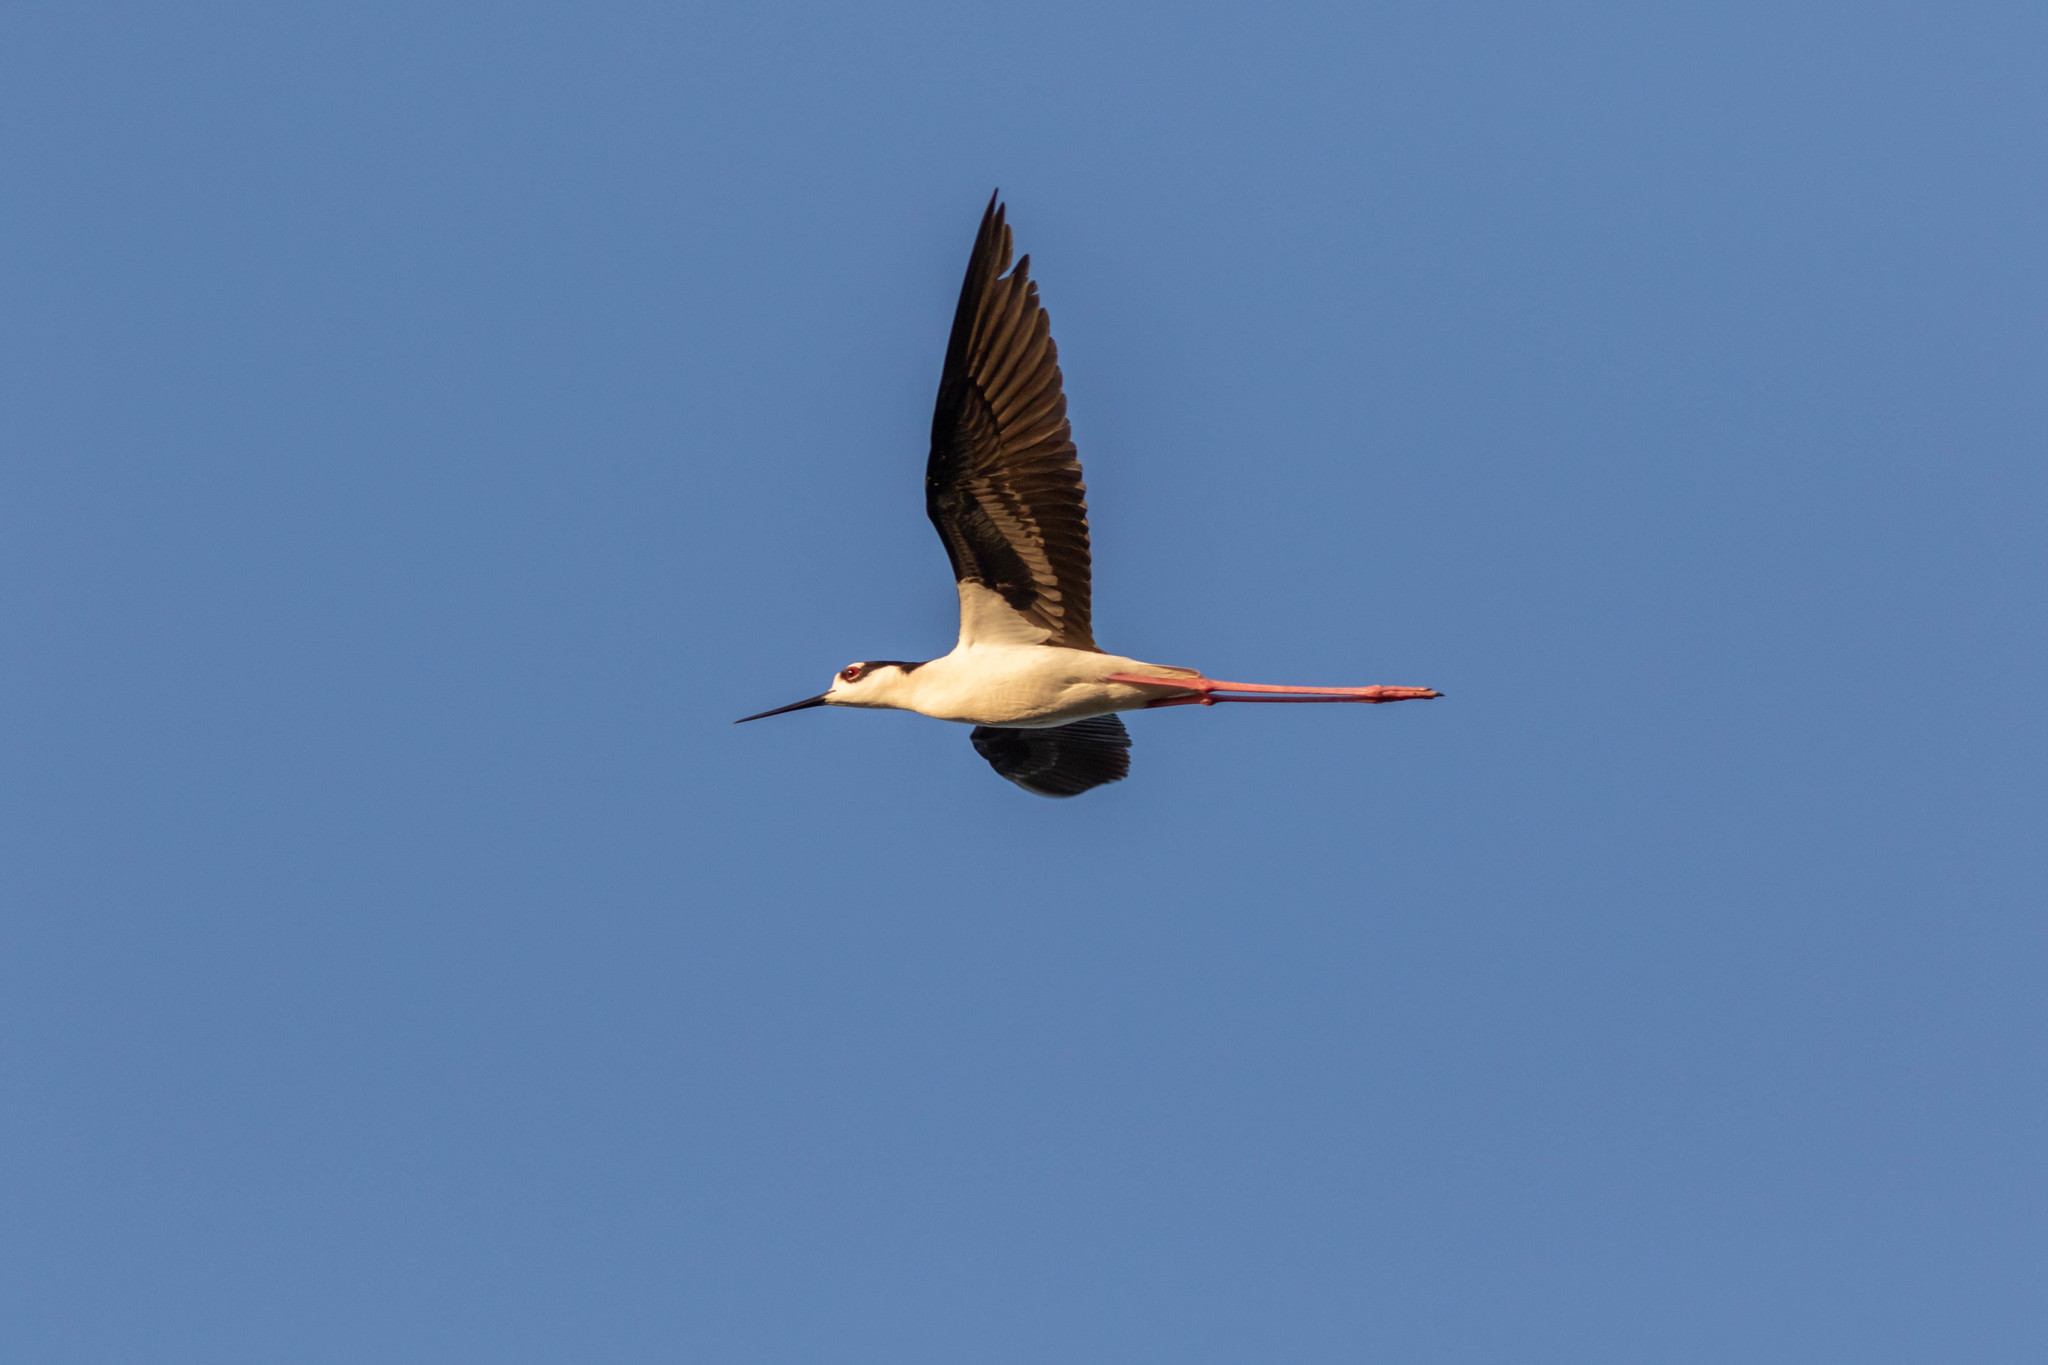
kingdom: Animalia
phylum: Chordata
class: Aves
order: Charadriiformes
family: Recurvirostridae
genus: Himantopus
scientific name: Himantopus mexicanus
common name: Black-necked stilt
